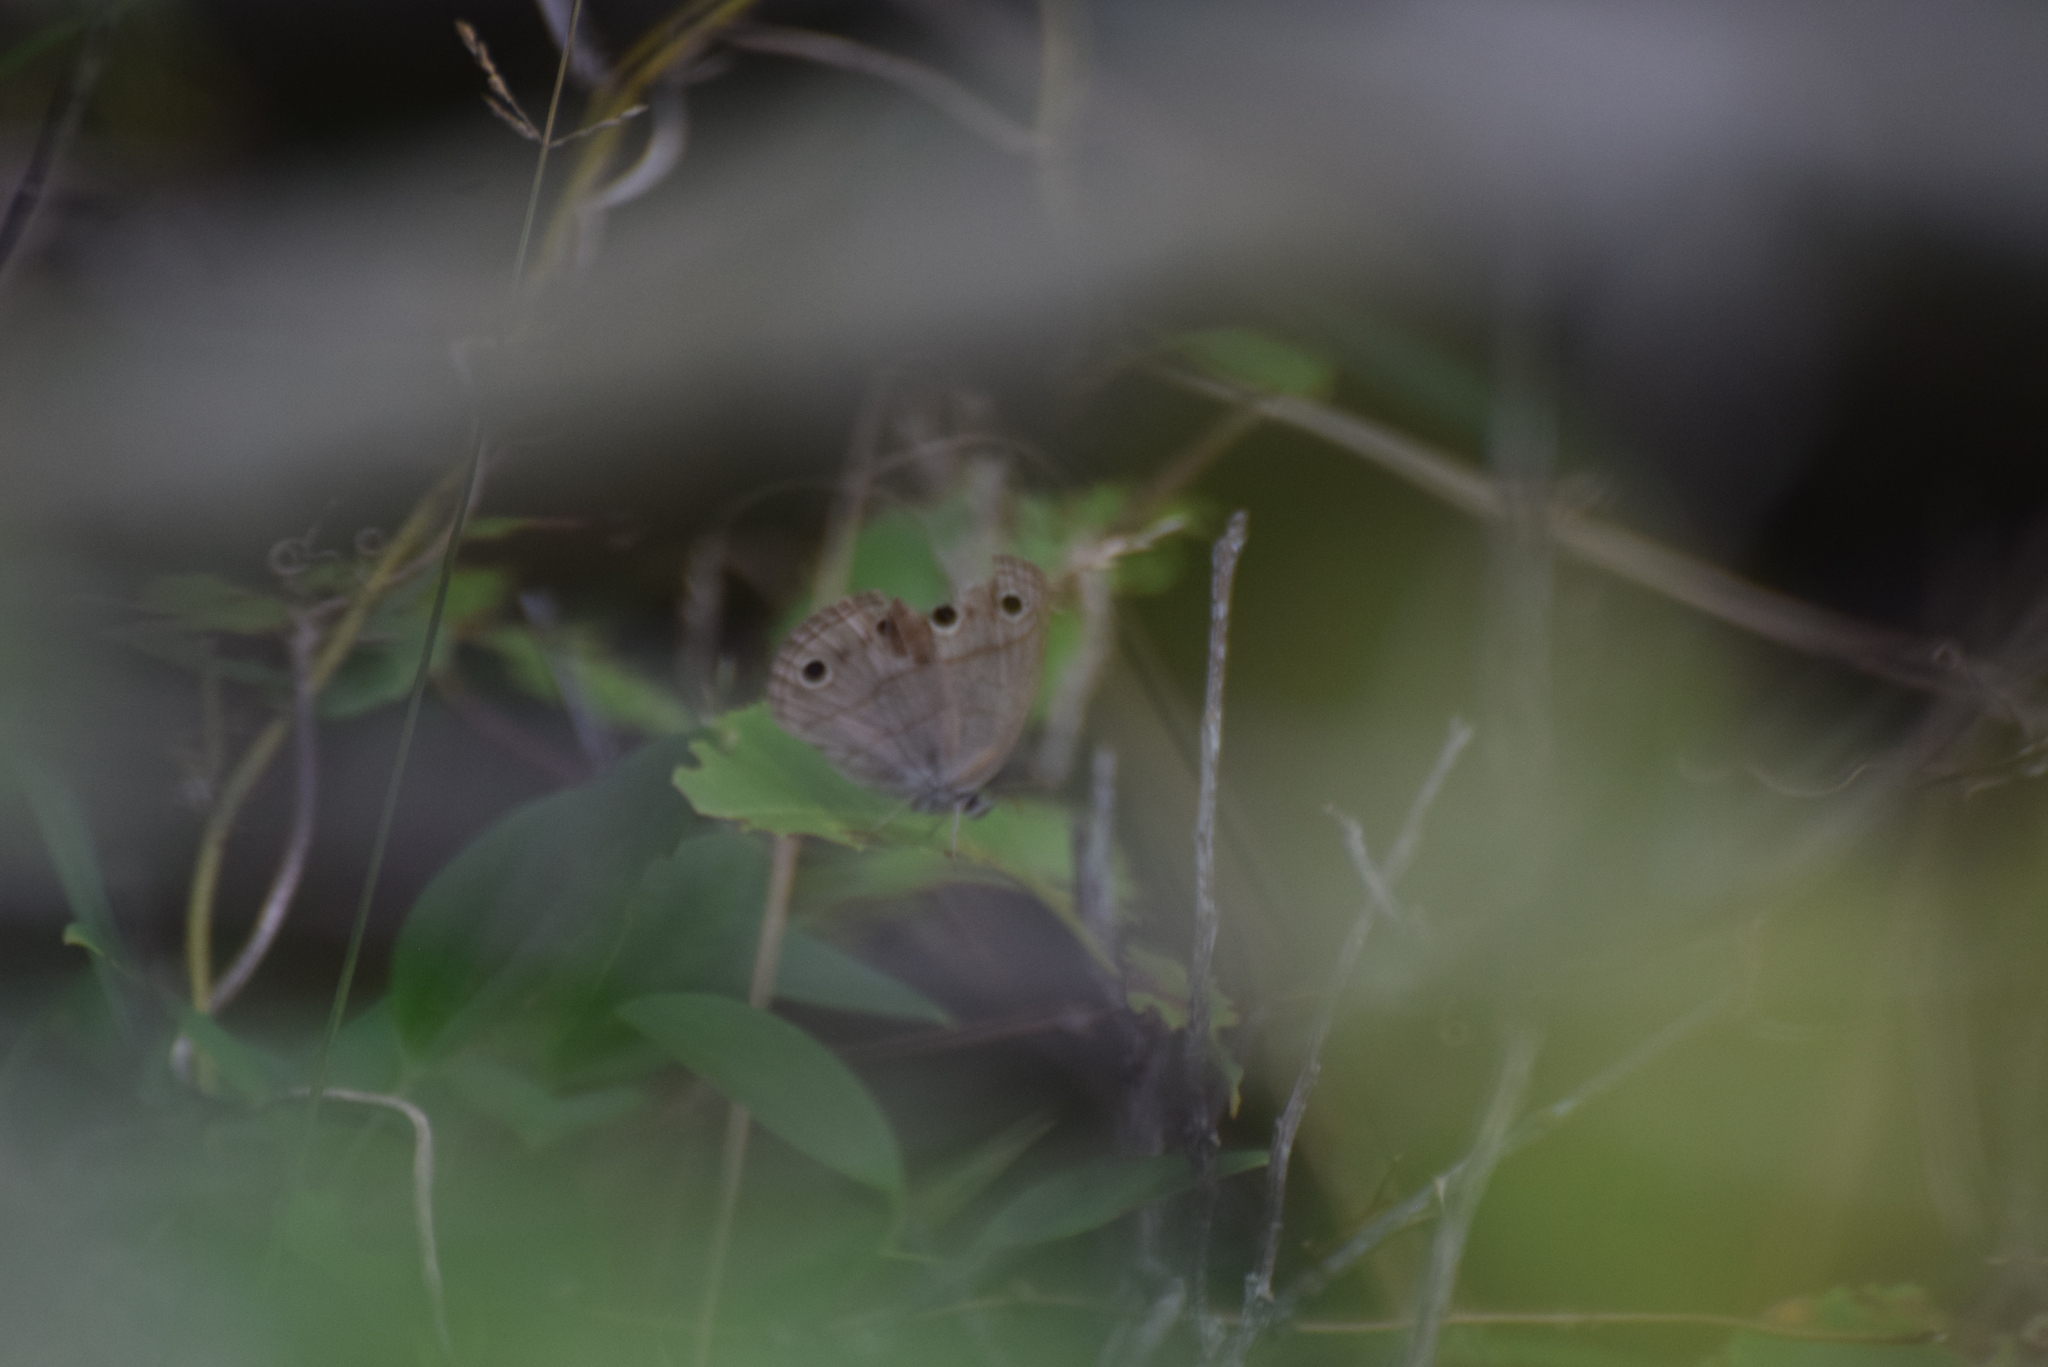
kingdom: Animalia
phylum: Arthropoda
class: Insecta
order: Lepidoptera
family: Nymphalidae
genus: Euptychia
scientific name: Euptychia cymela
